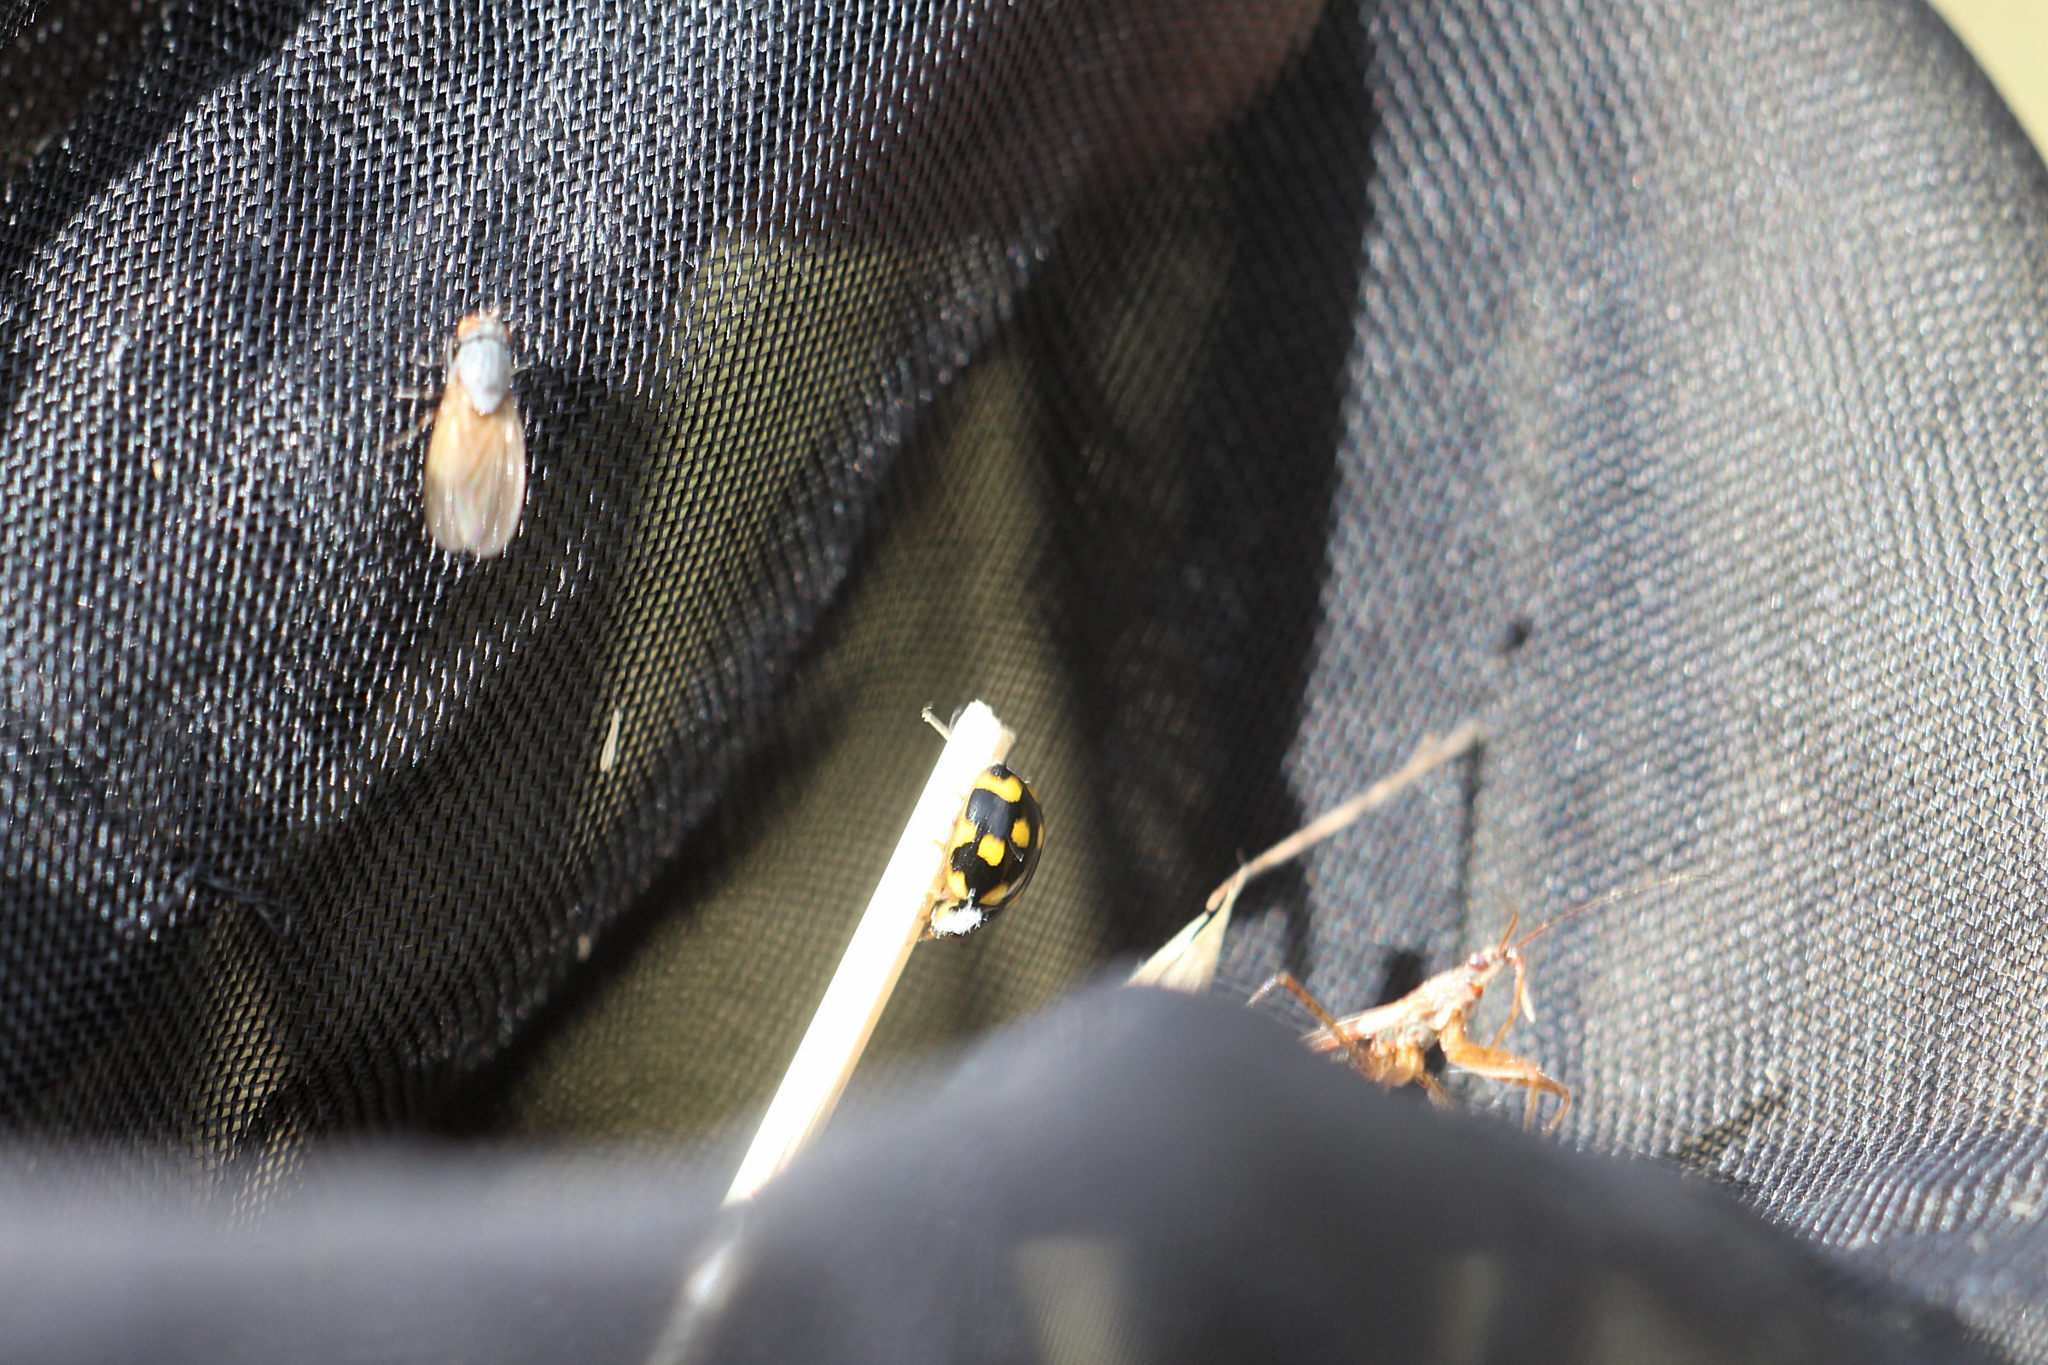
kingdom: Animalia
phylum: Arthropoda
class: Insecta
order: Coleoptera
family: Coccinellidae
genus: Propylaea
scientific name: Propylaea quatuordecimpunctata
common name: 14-spotted ladybird beetle
